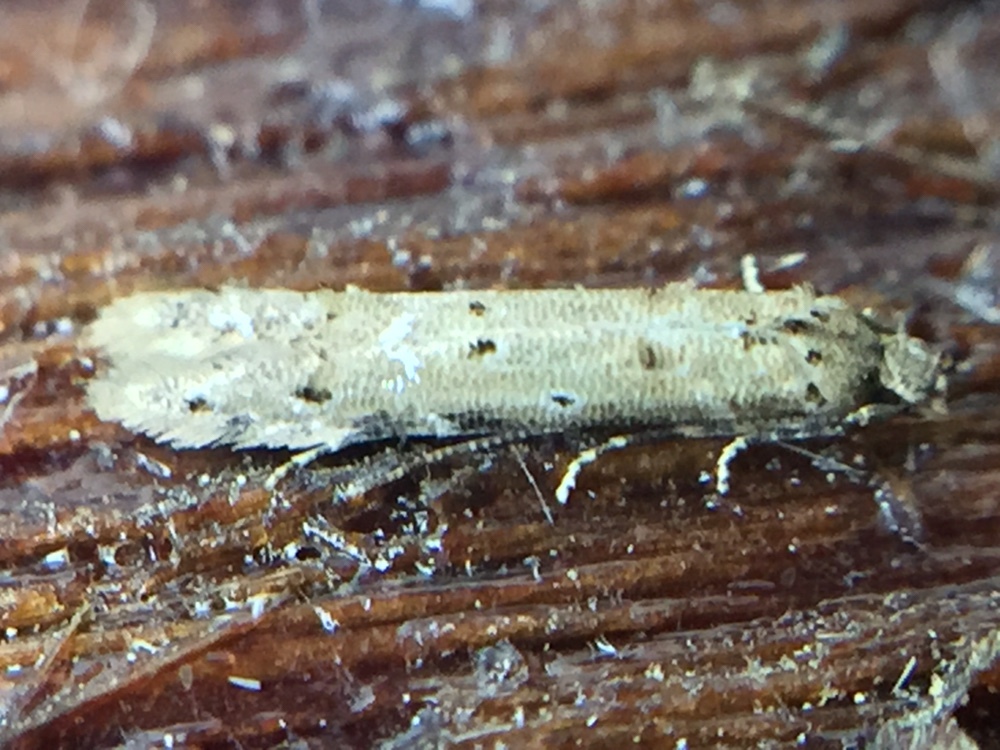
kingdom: Animalia
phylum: Arthropoda
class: Insecta
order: Lepidoptera
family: Elachistidae
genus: Microcolona
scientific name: Microcolona limodes
